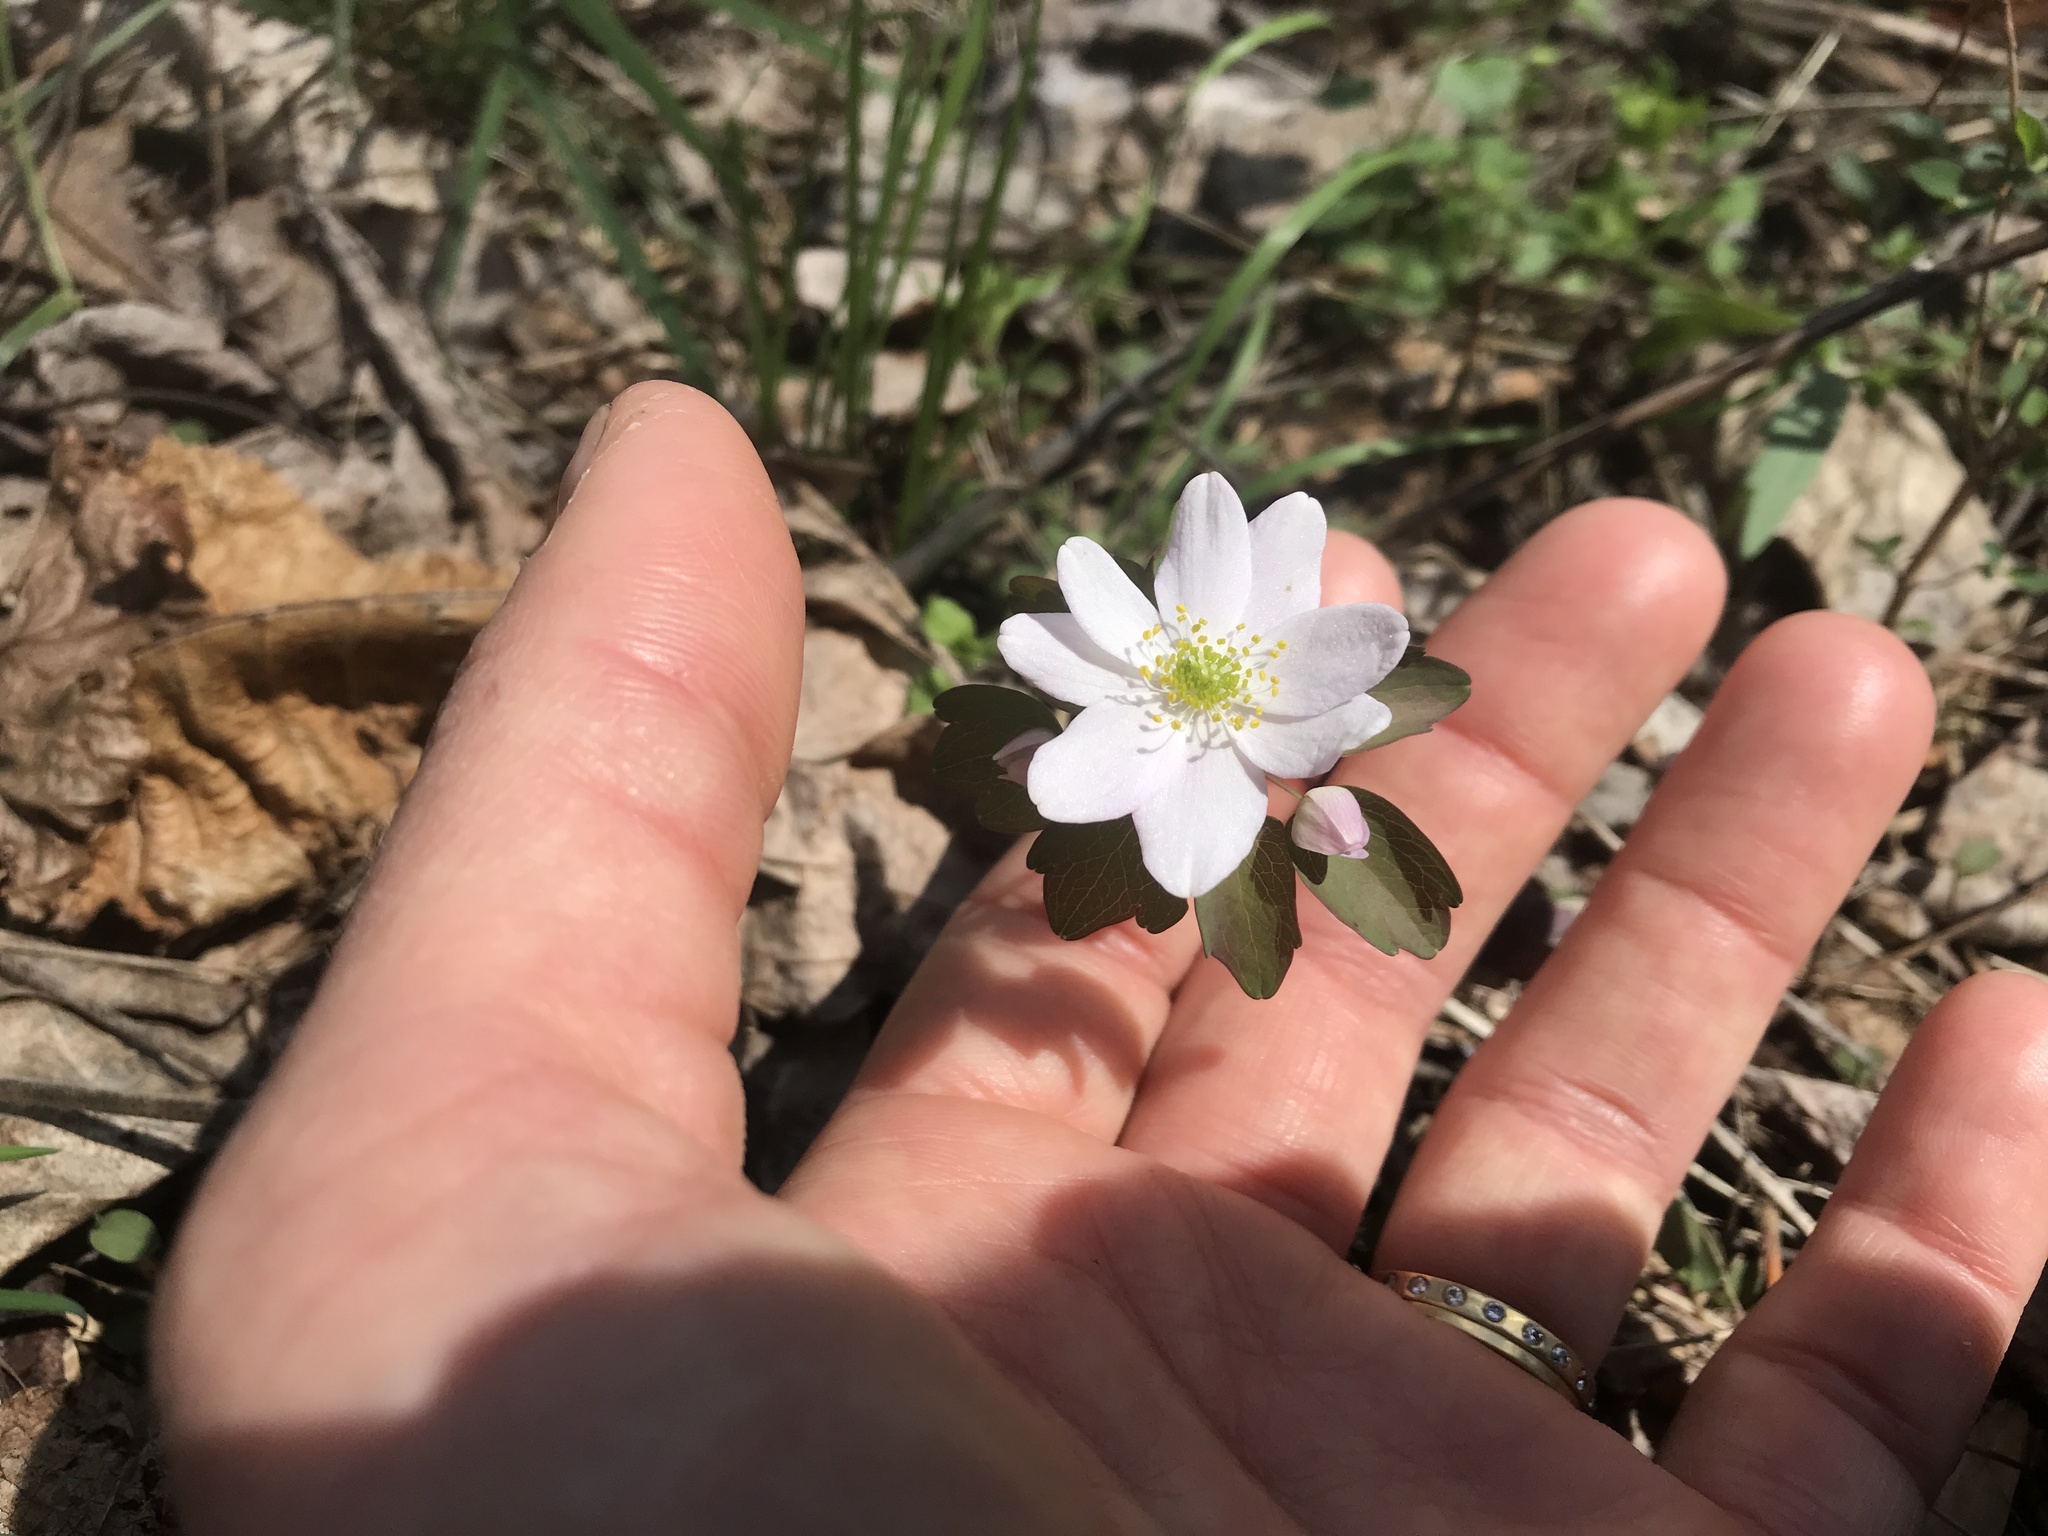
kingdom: Plantae
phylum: Tracheophyta
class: Magnoliopsida
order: Ranunculales
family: Ranunculaceae
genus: Thalictrum
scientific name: Thalictrum thalictroides
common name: Rue-anemone
